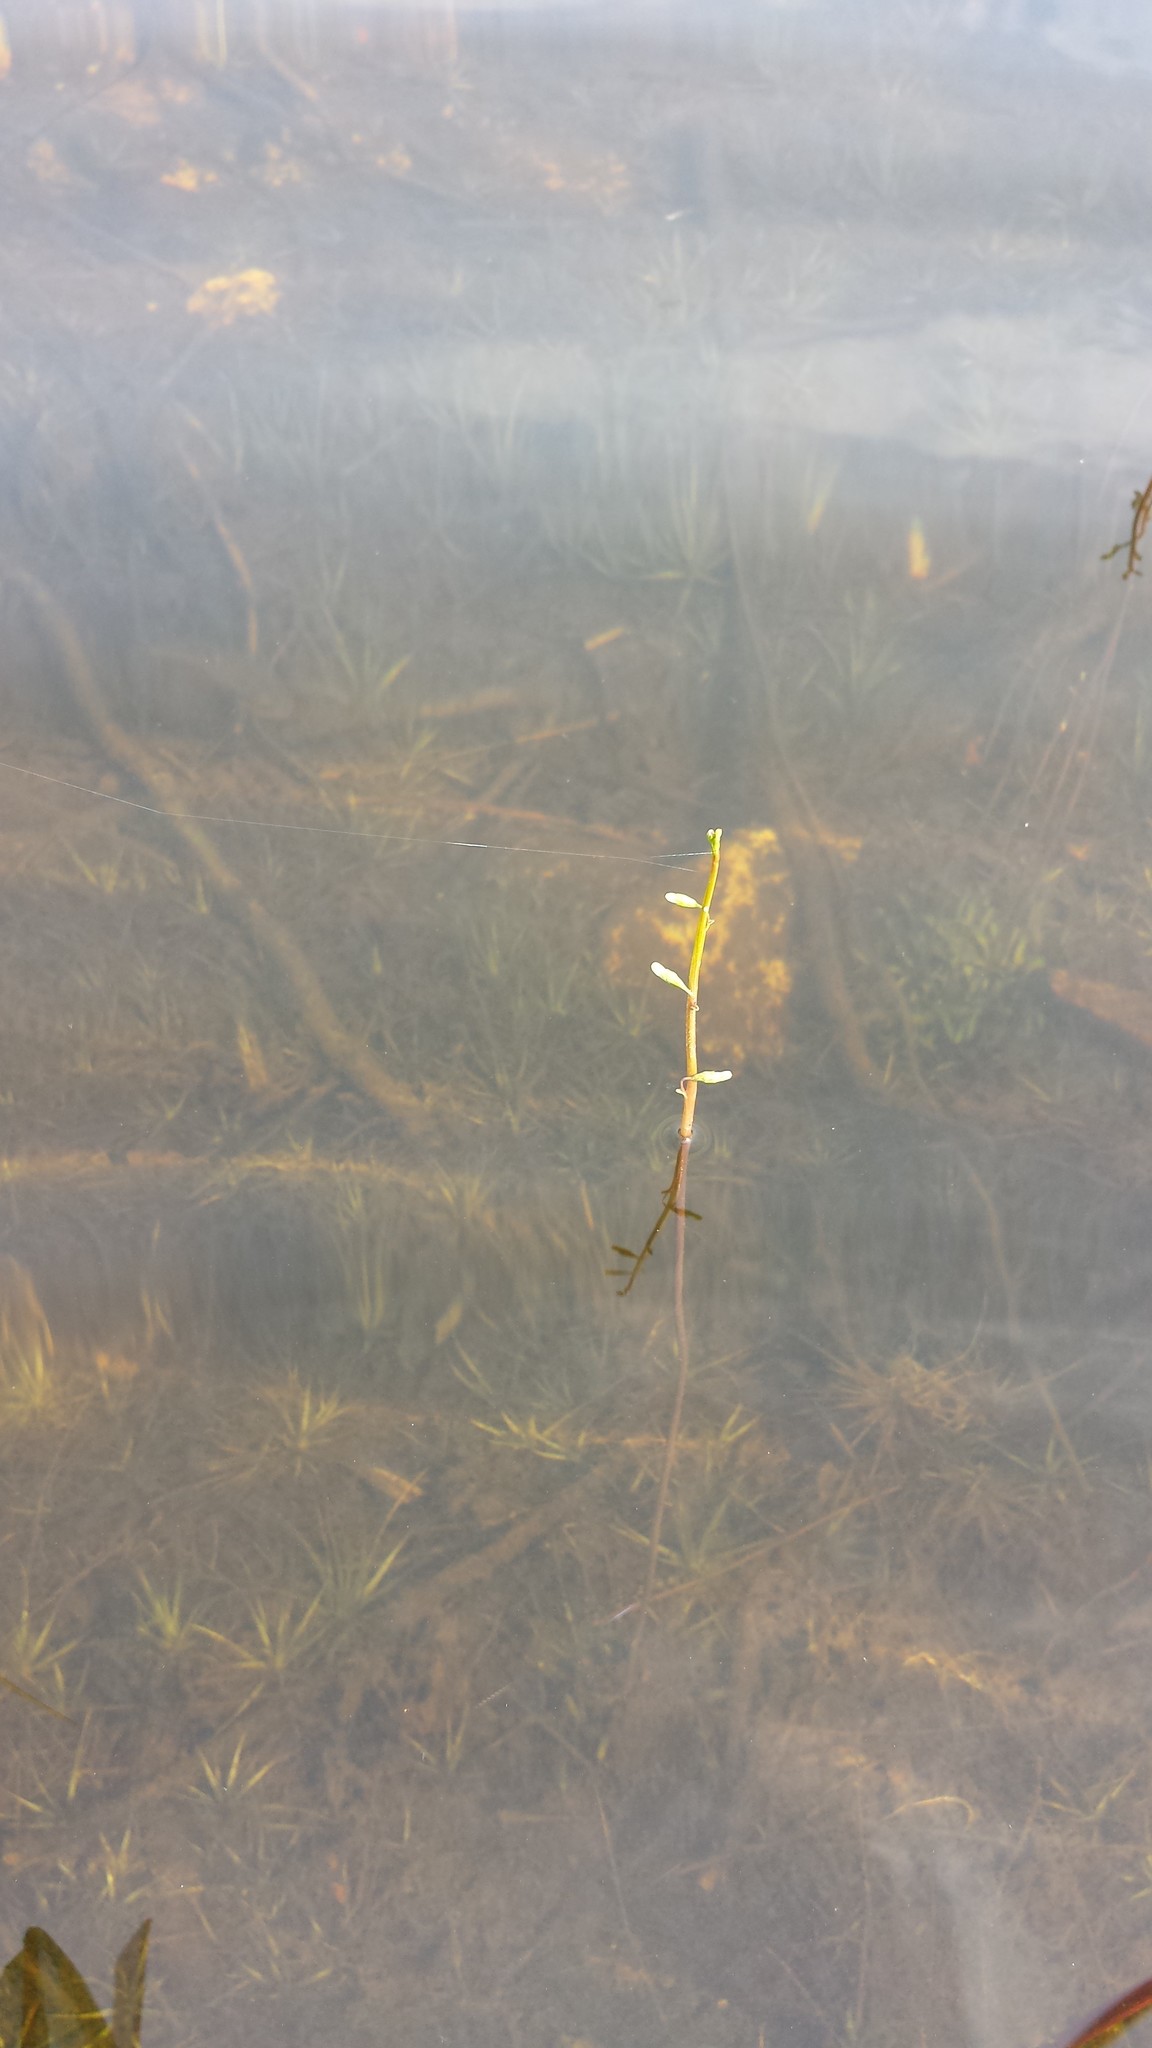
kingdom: Plantae
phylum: Tracheophyta
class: Magnoliopsida
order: Asterales
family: Campanulaceae
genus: Lobelia
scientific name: Lobelia dortmanna
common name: Water lobelia
